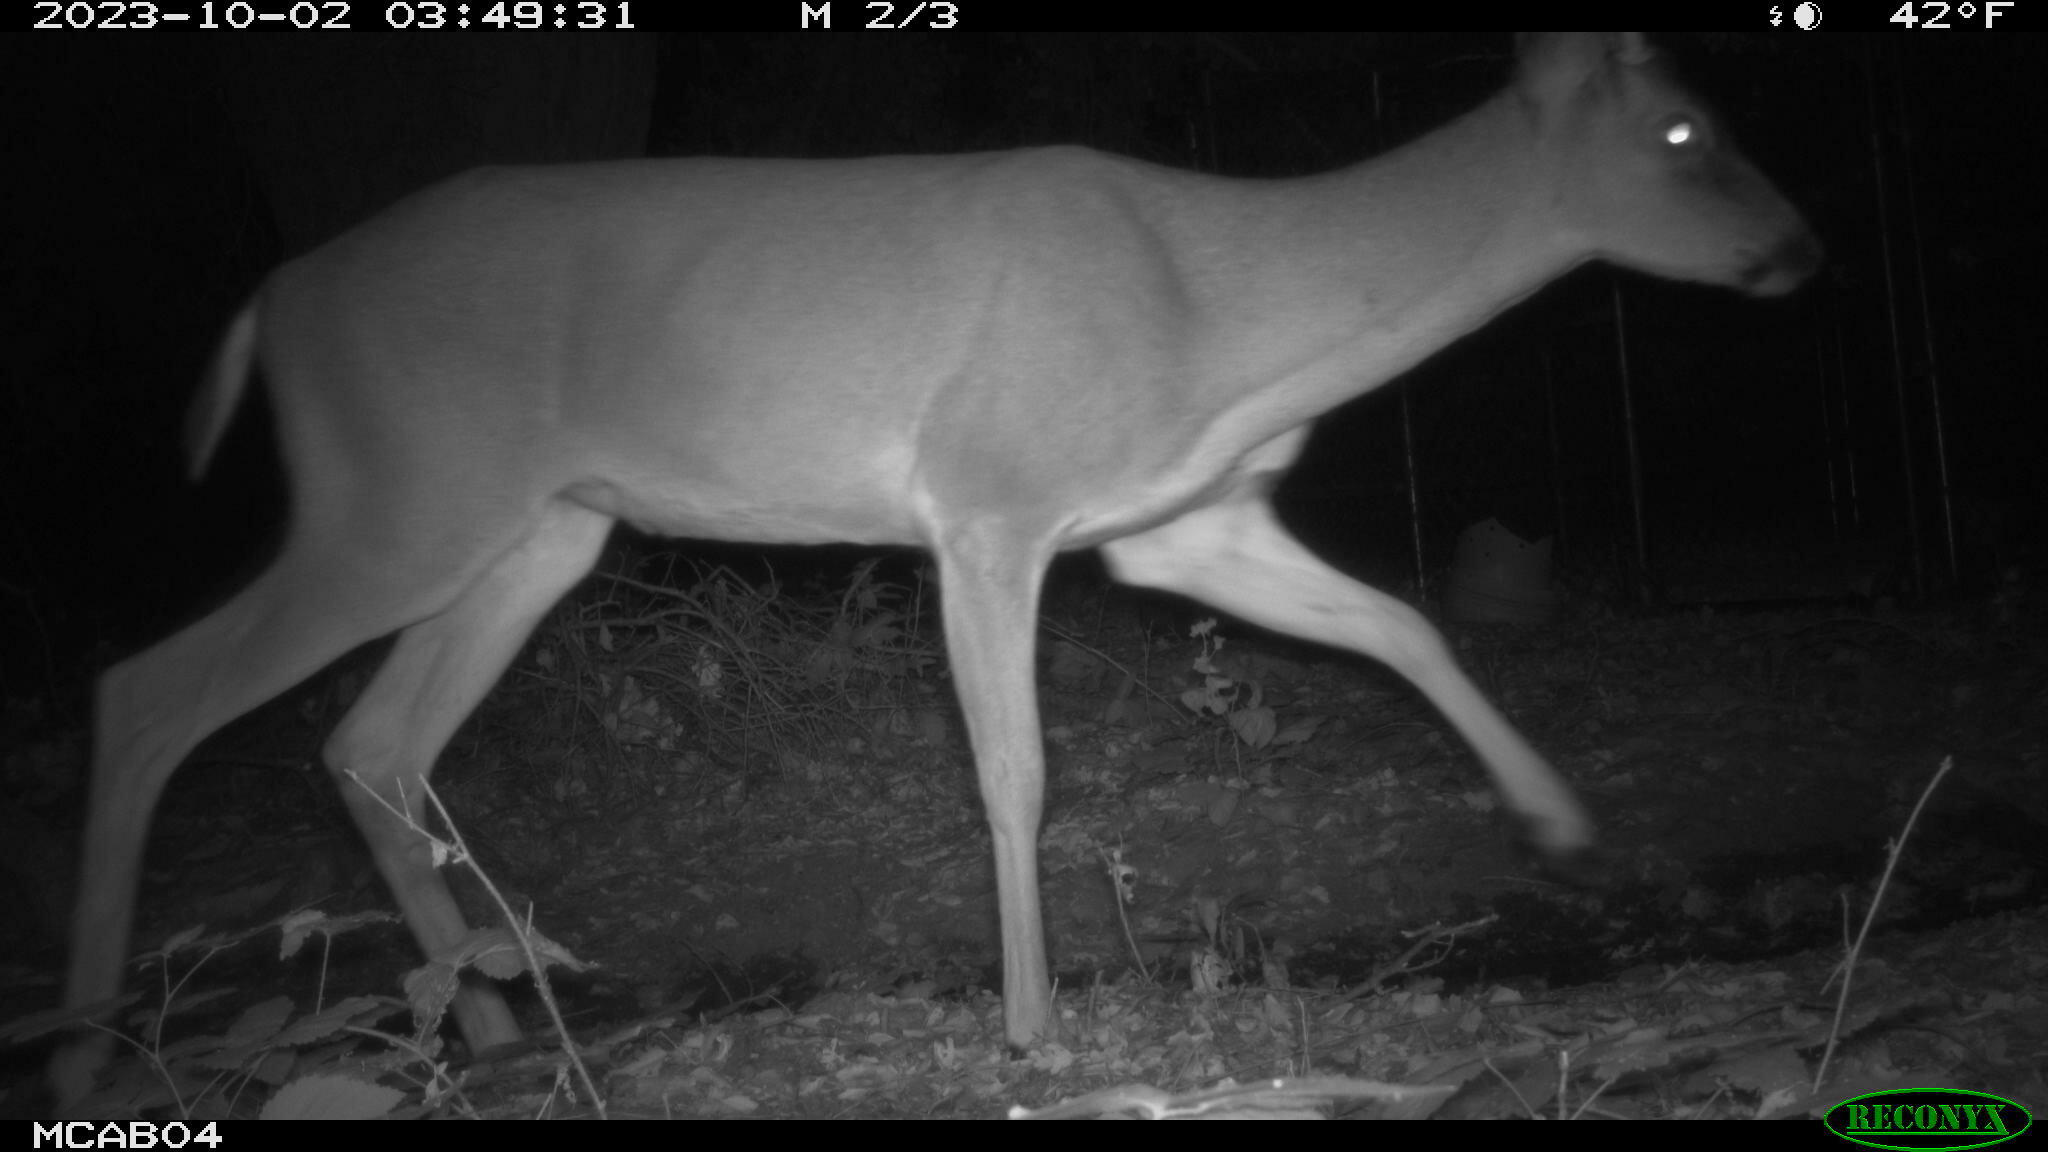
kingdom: Animalia
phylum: Chordata
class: Mammalia
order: Artiodactyla
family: Cervidae
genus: Odocoileus
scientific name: Odocoileus hemionus
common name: Mule deer
